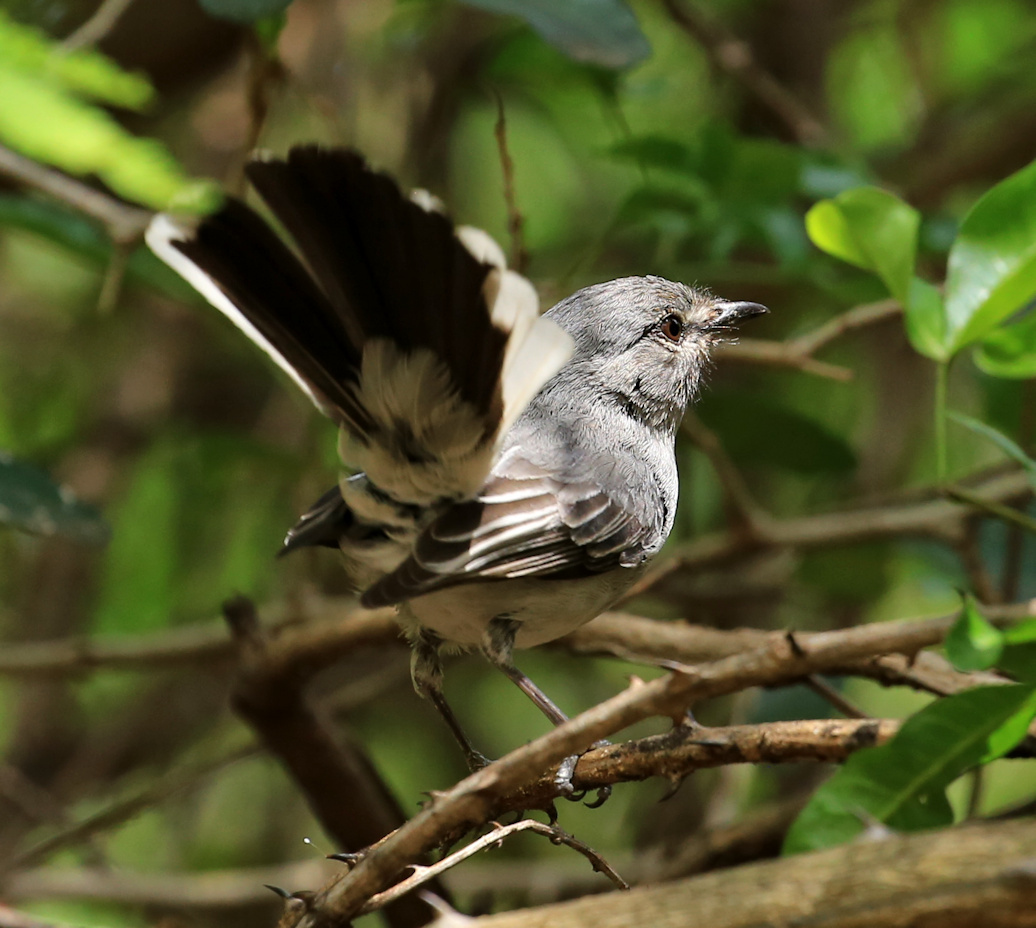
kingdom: Animalia
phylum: Chordata
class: Aves
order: Passeriformes
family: Muscicapidae
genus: Myioparus
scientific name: Myioparus plumbeus
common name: Grey tit-flycatcher
